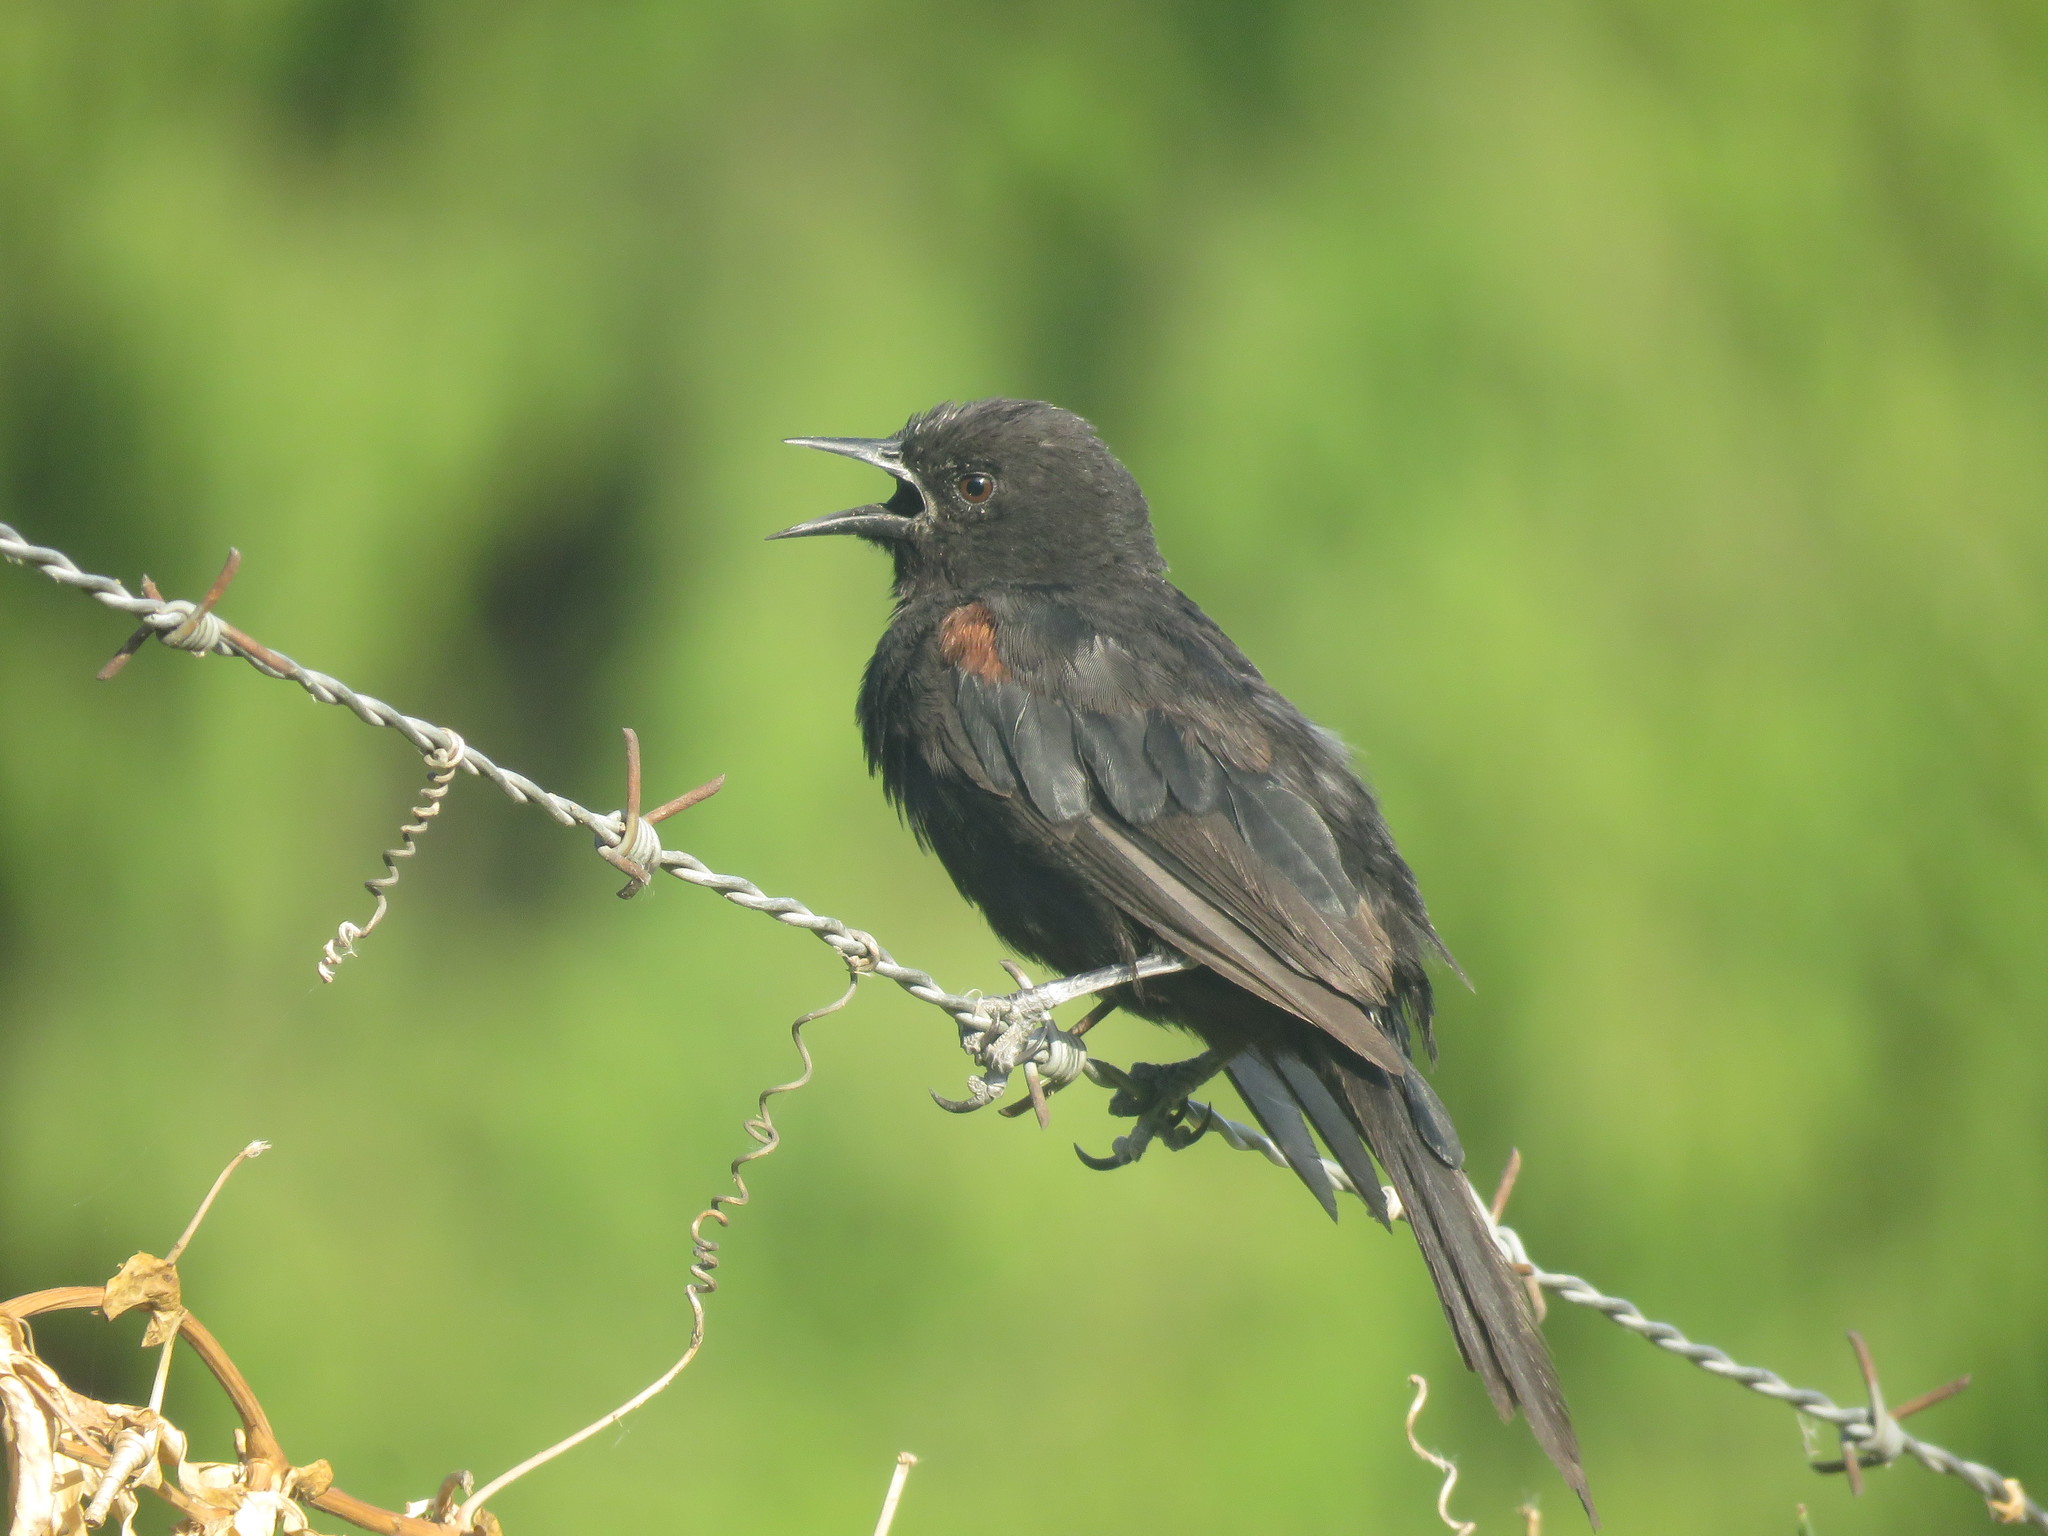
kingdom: Animalia
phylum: Chordata
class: Aves
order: Passeriformes
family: Icteridae
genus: Icterus
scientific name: Icterus cayanensis
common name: Epaulet oriole
